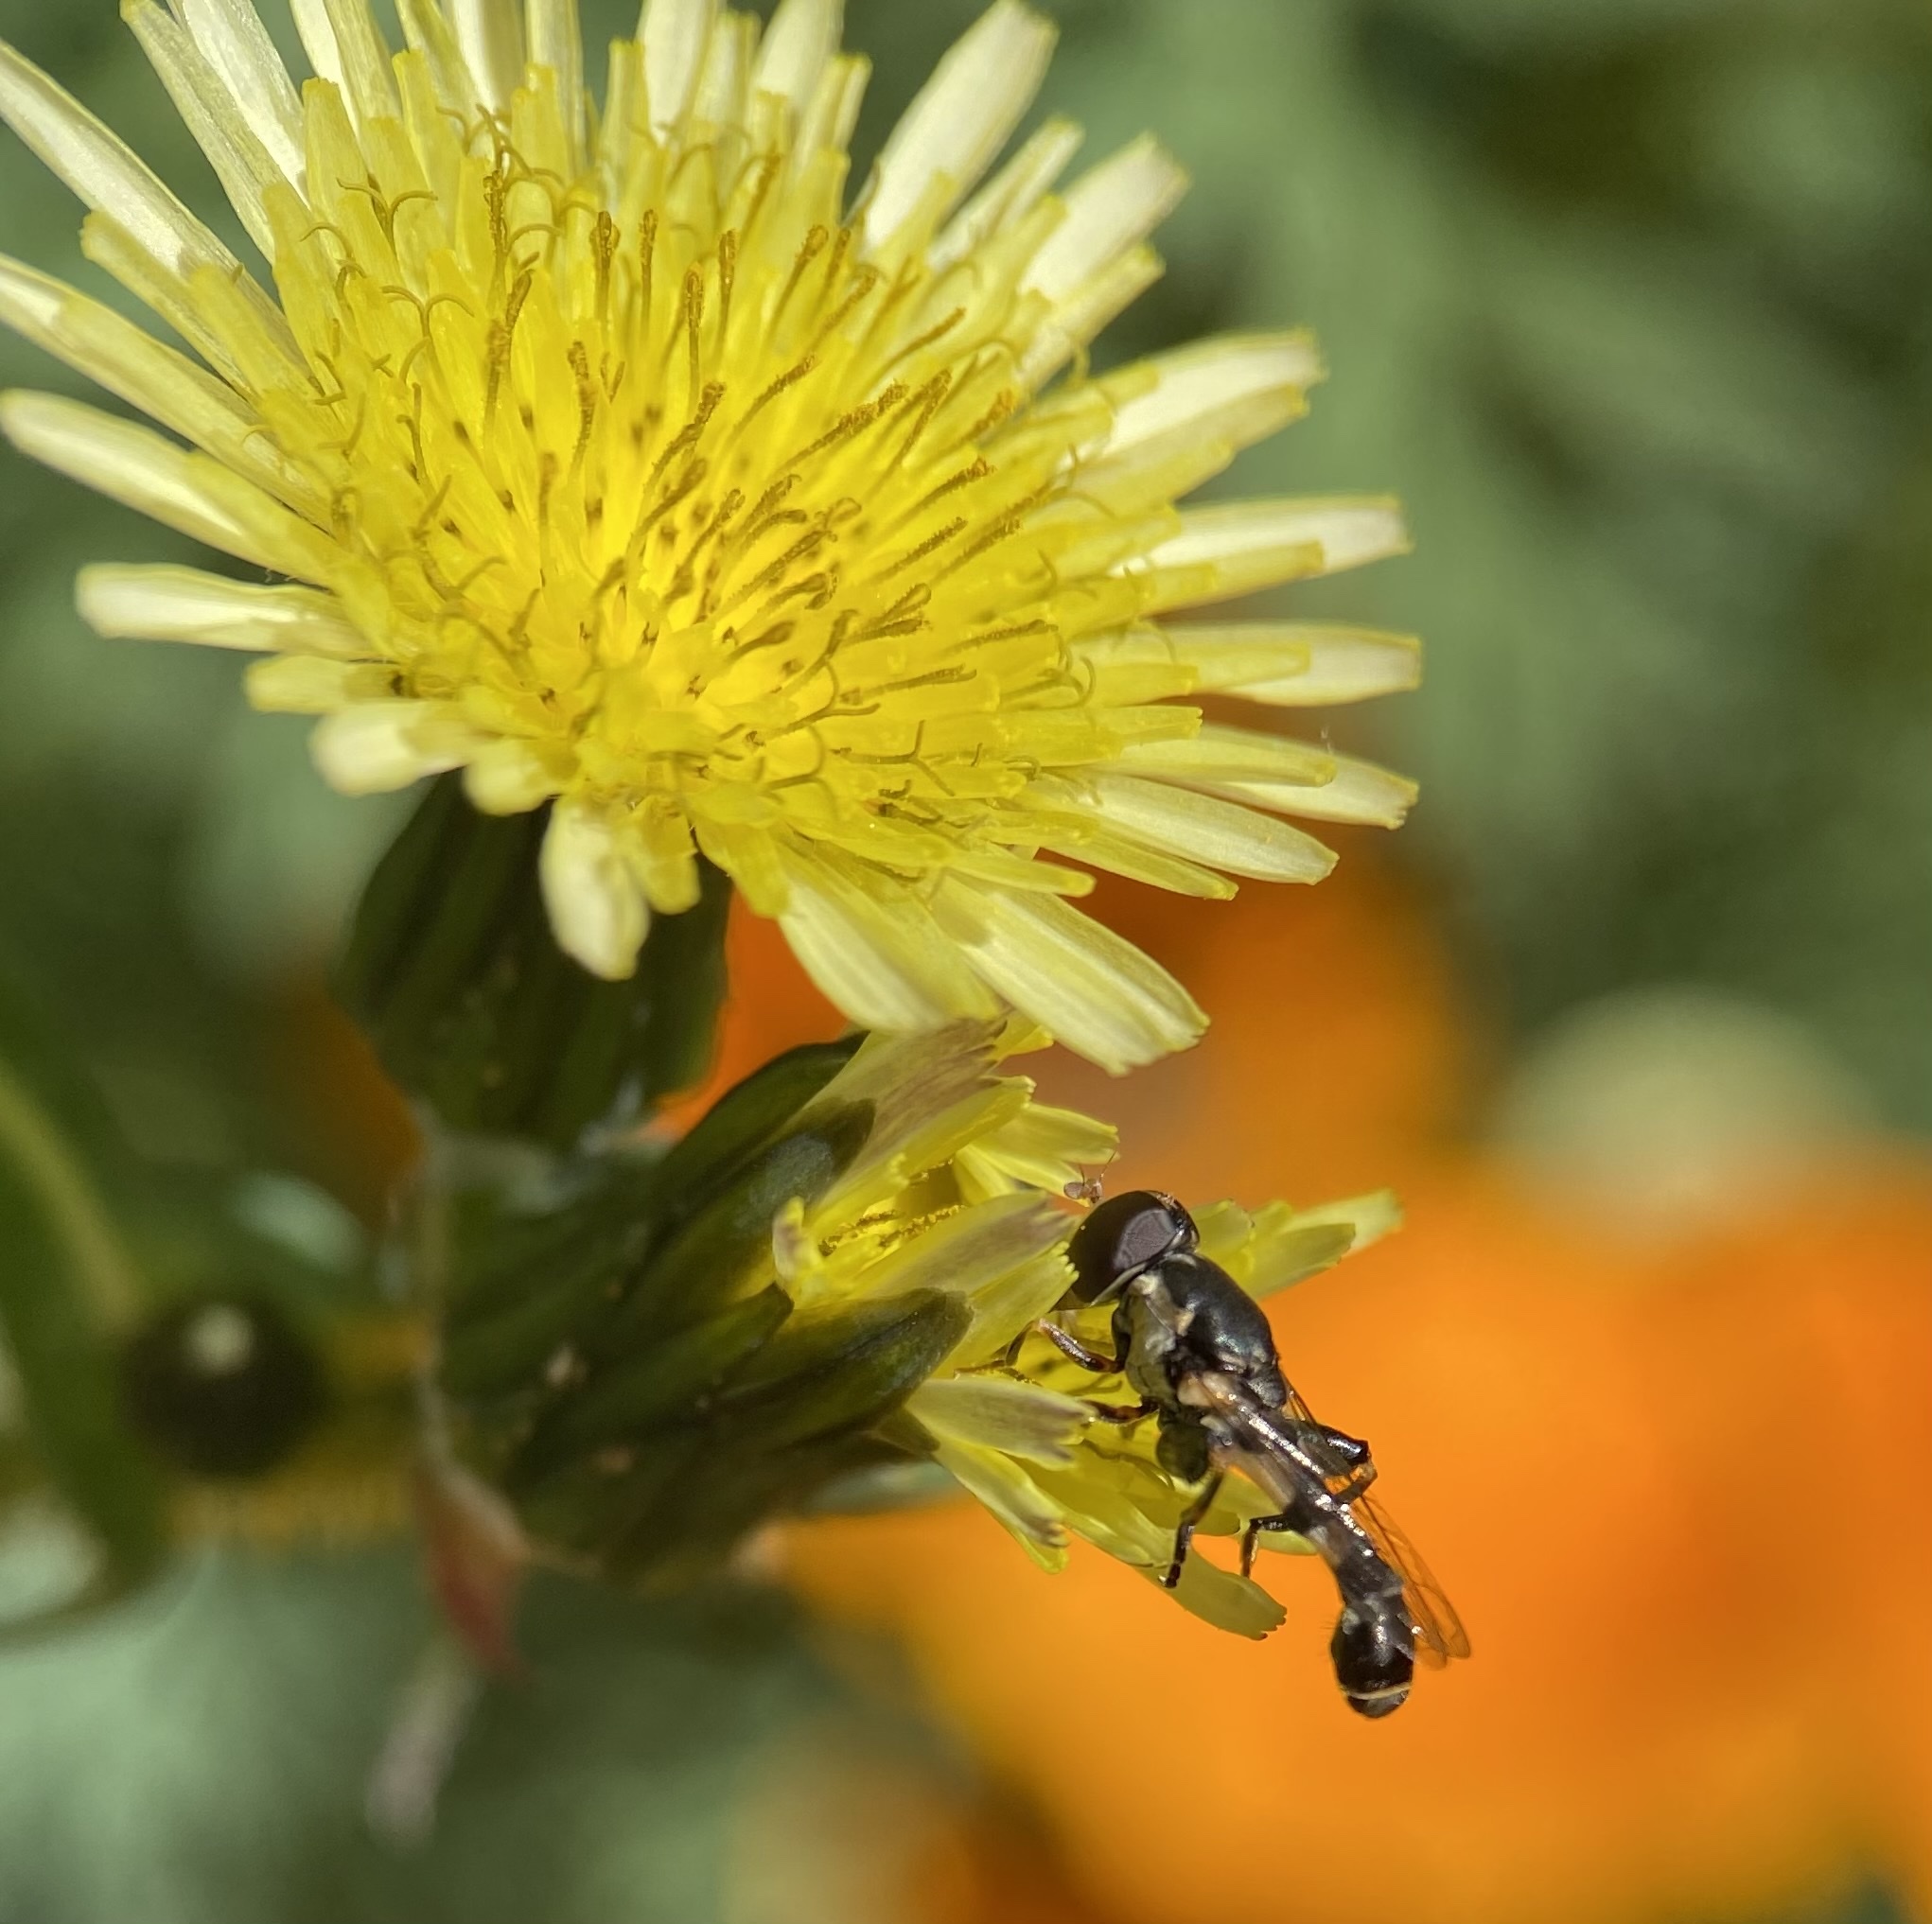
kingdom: Animalia
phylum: Arthropoda
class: Insecta
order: Diptera
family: Syrphidae
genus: Syritta
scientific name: Syritta pipiens
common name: Hover fly
